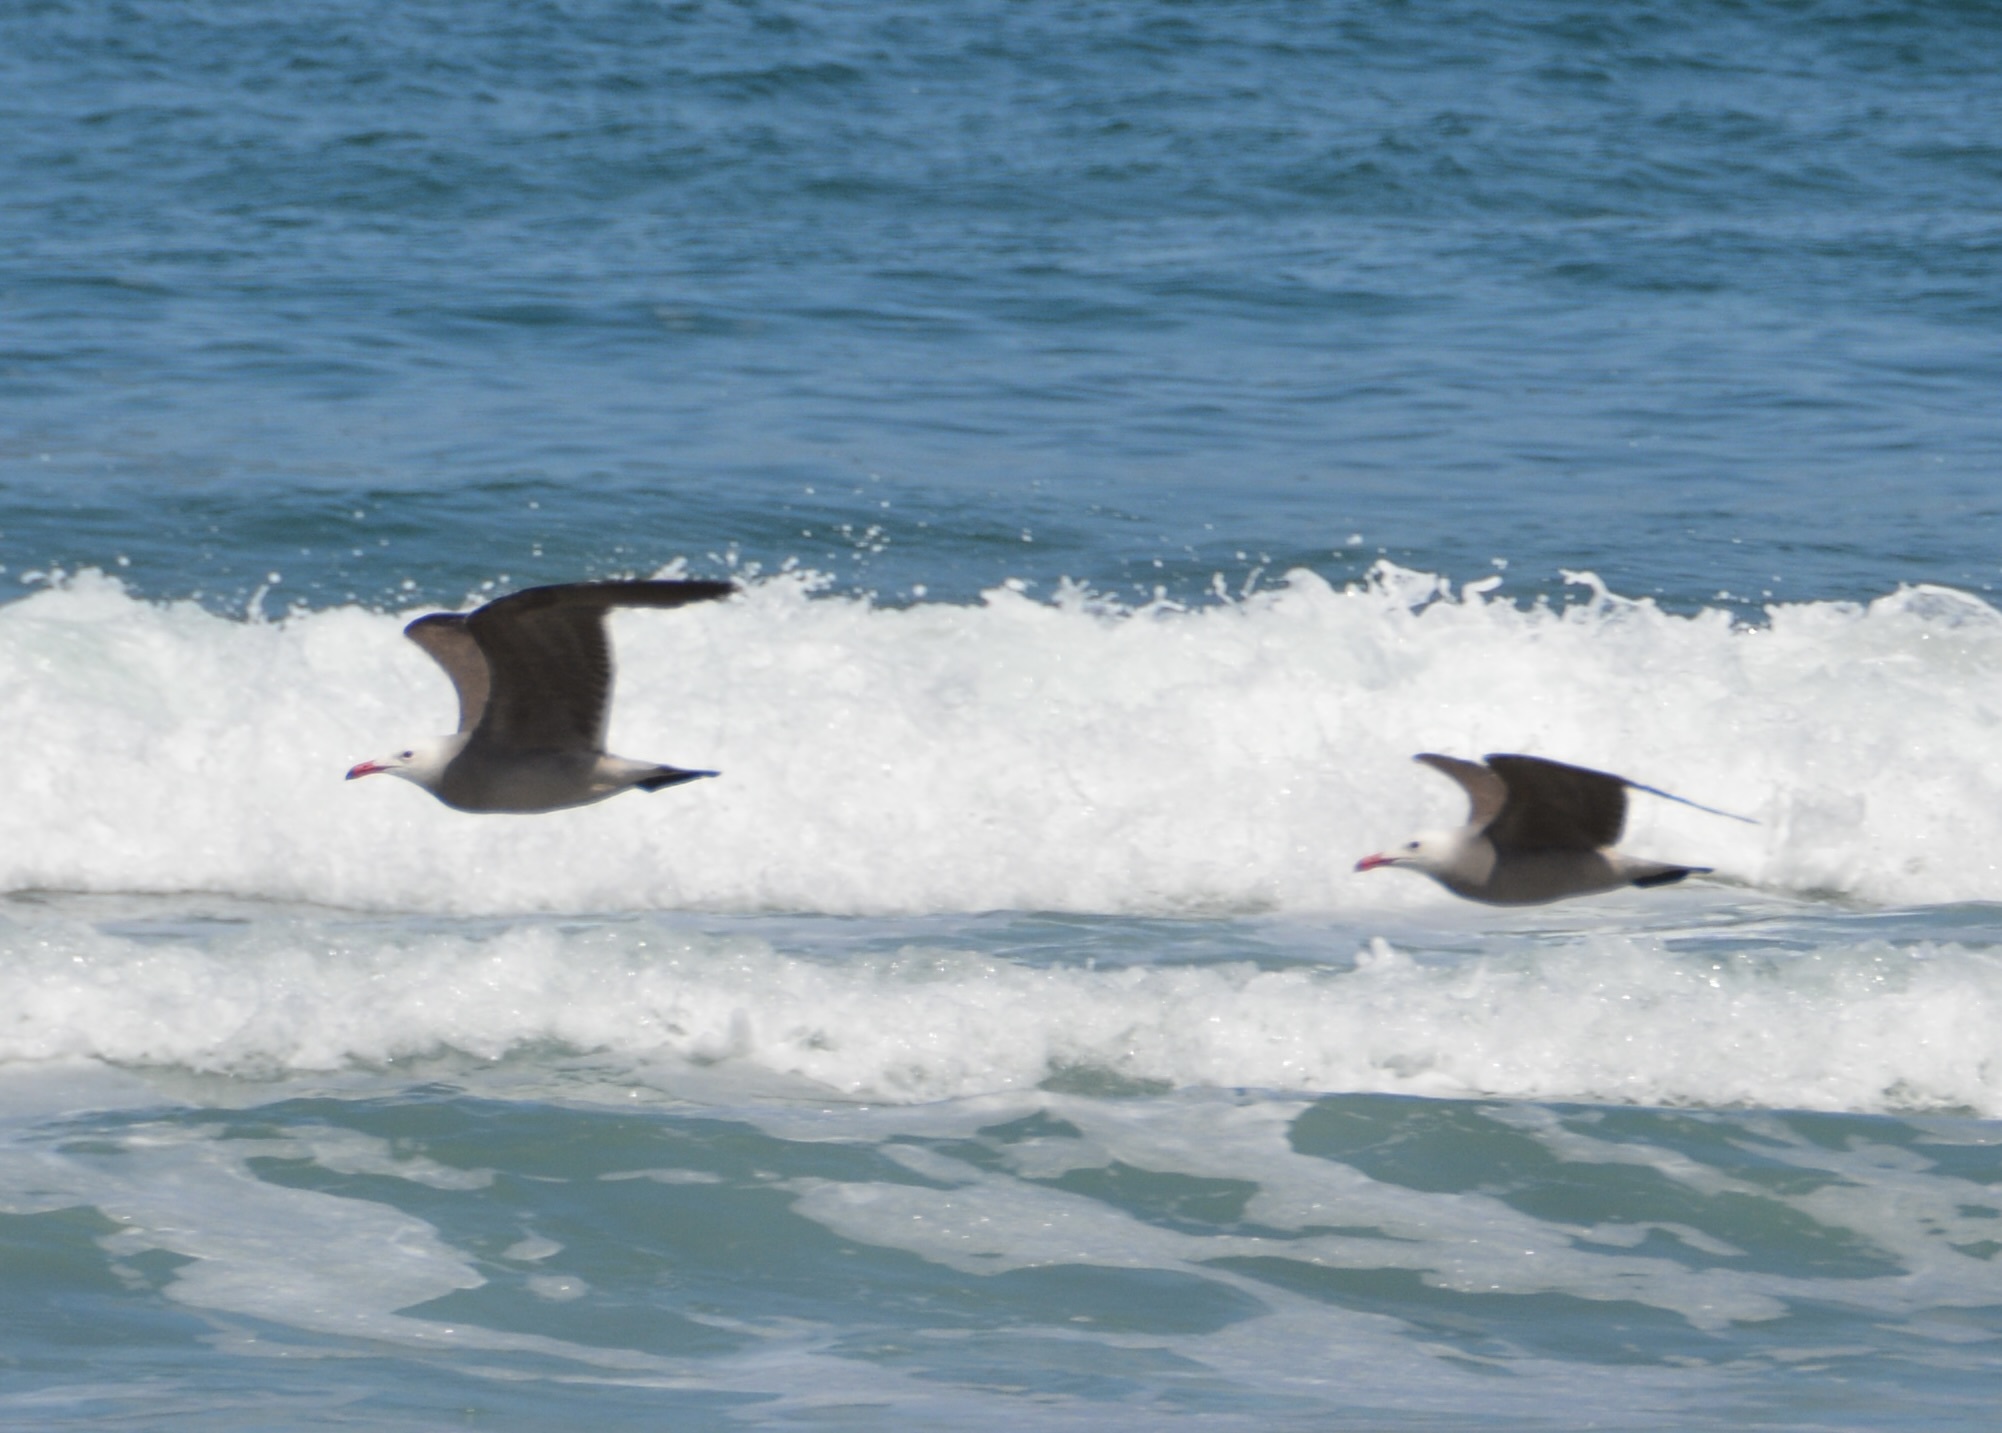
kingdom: Animalia
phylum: Chordata
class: Aves
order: Charadriiformes
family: Laridae
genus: Larus
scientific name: Larus heermanni
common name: Heermann's gull
